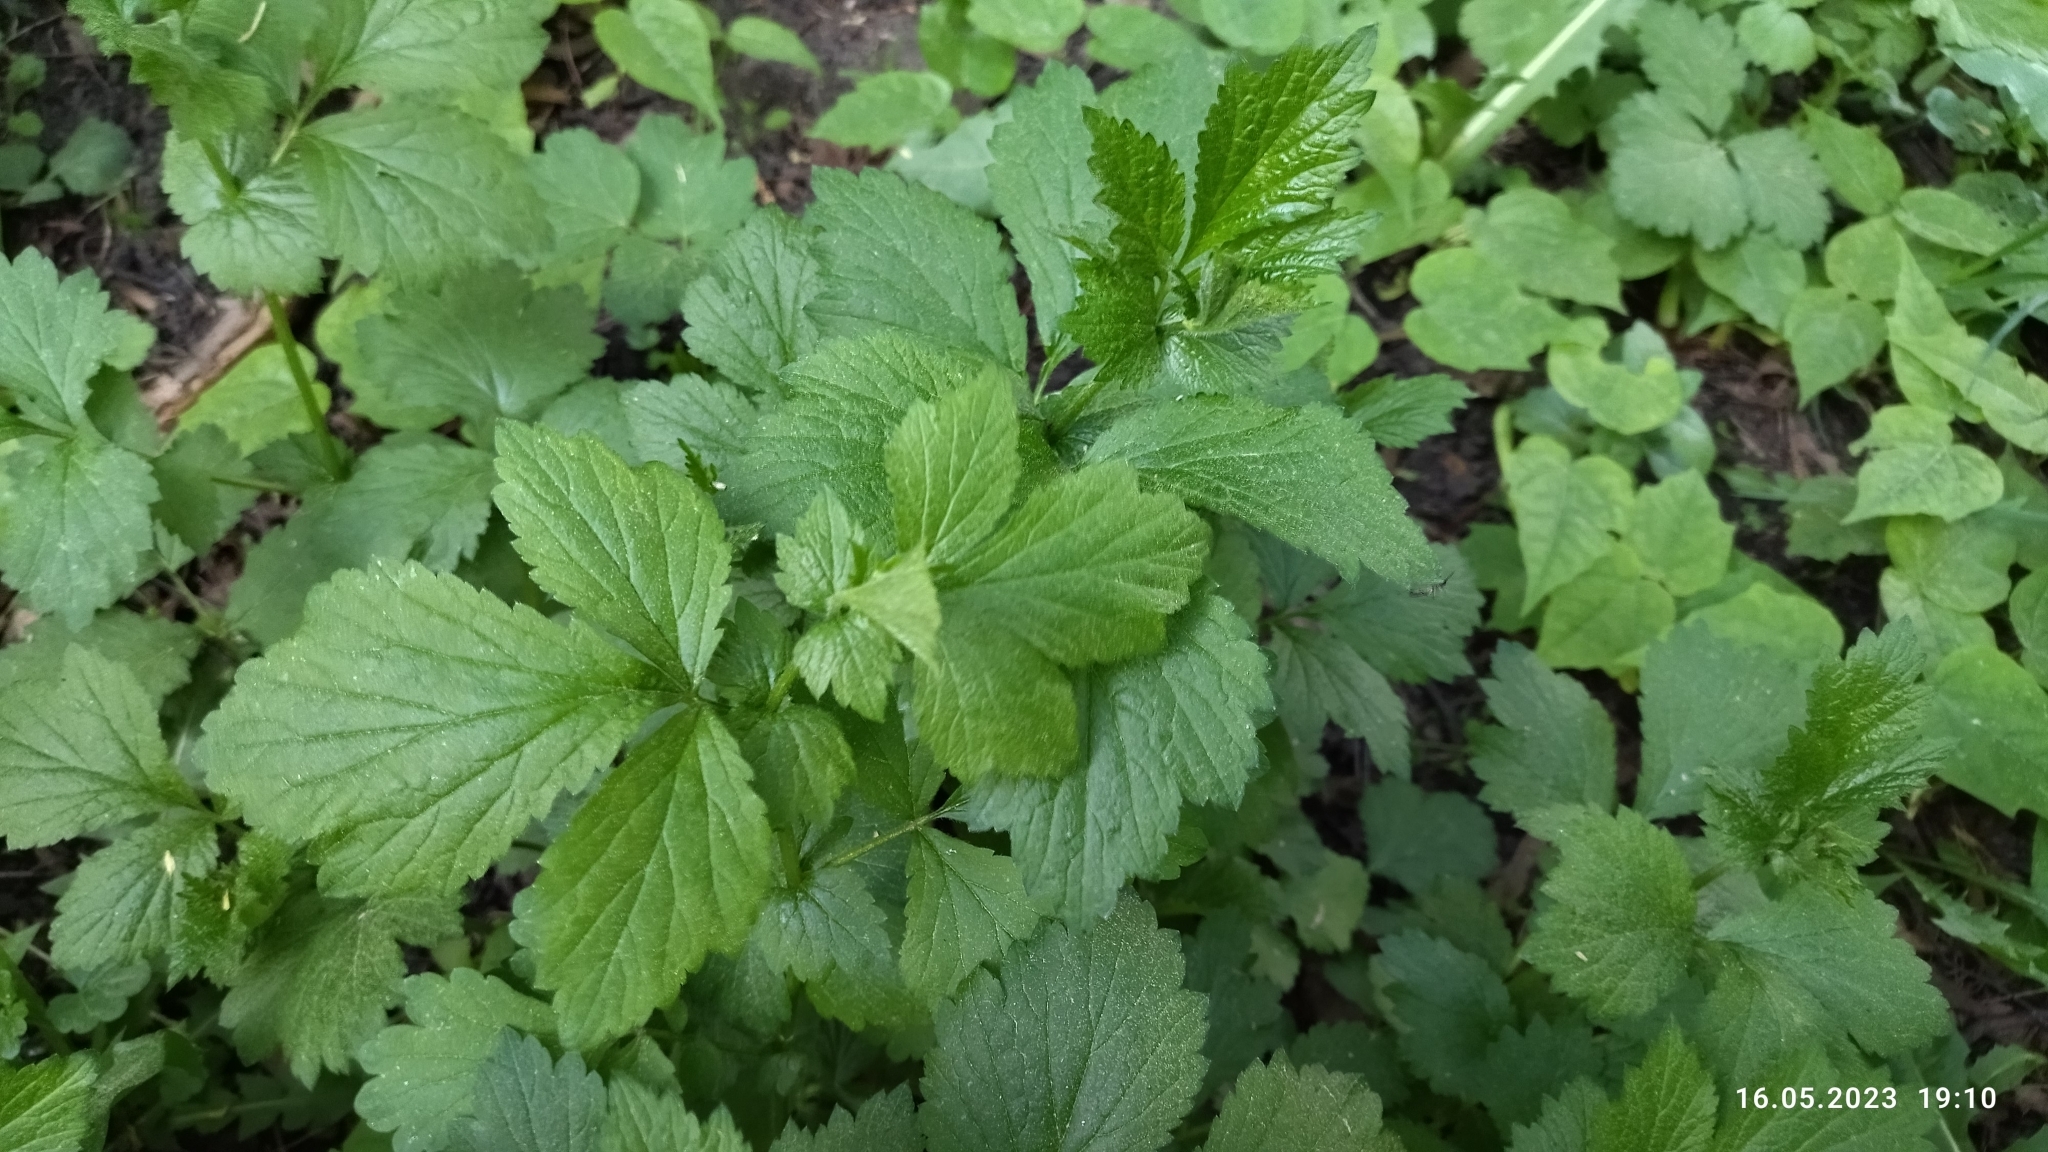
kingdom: Plantae
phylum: Tracheophyta
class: Magnoliopsida
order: Rosales
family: Rosaceae
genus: Geum
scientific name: Geum urbanum
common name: Wood avens
